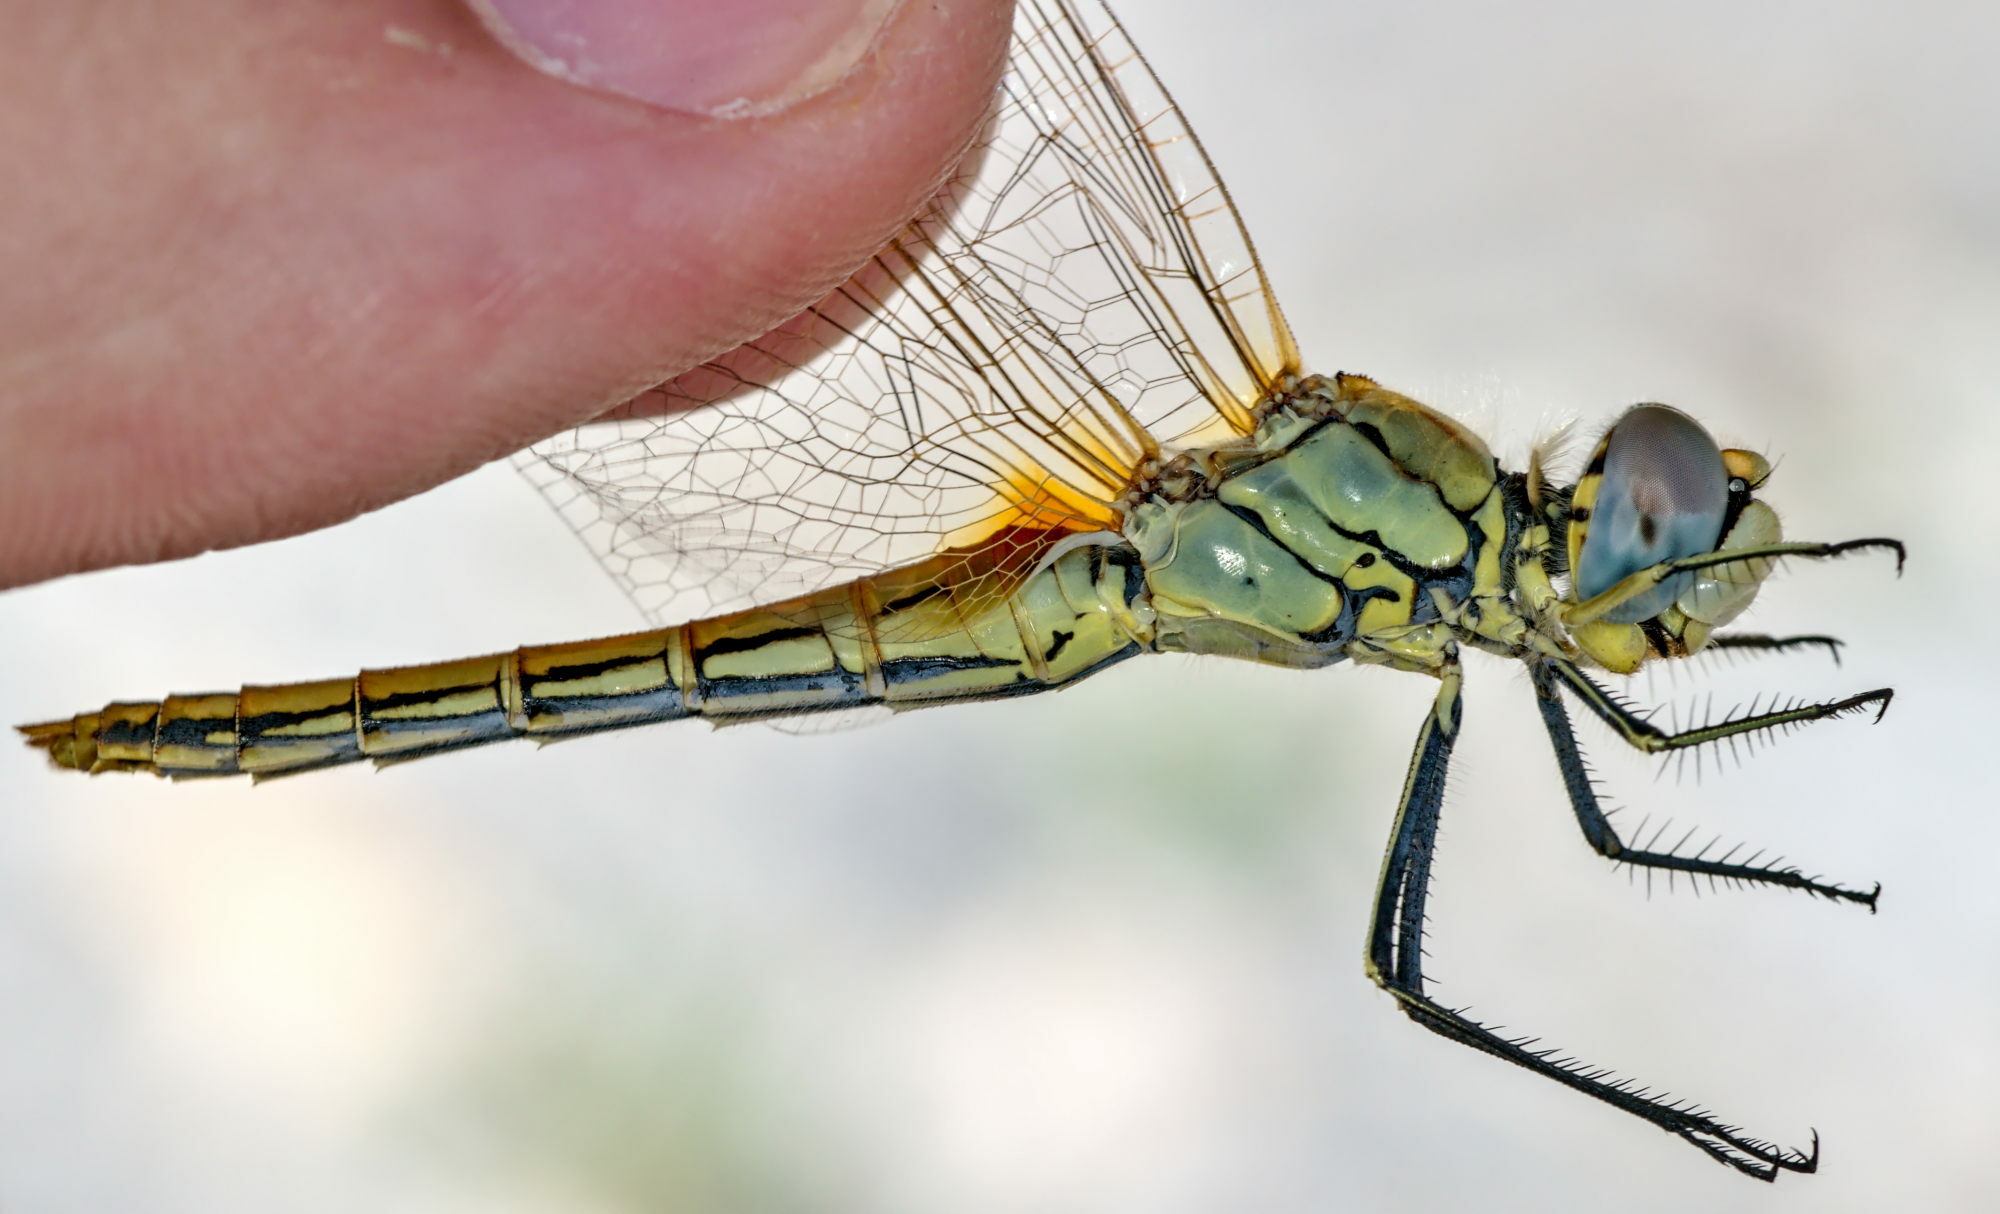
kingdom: Animalia
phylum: Arthropoda
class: Insecta
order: Odonata
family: Libellulidae
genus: Sympetrum
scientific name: Sympetrum fonscolombii
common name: Red-veined darter
